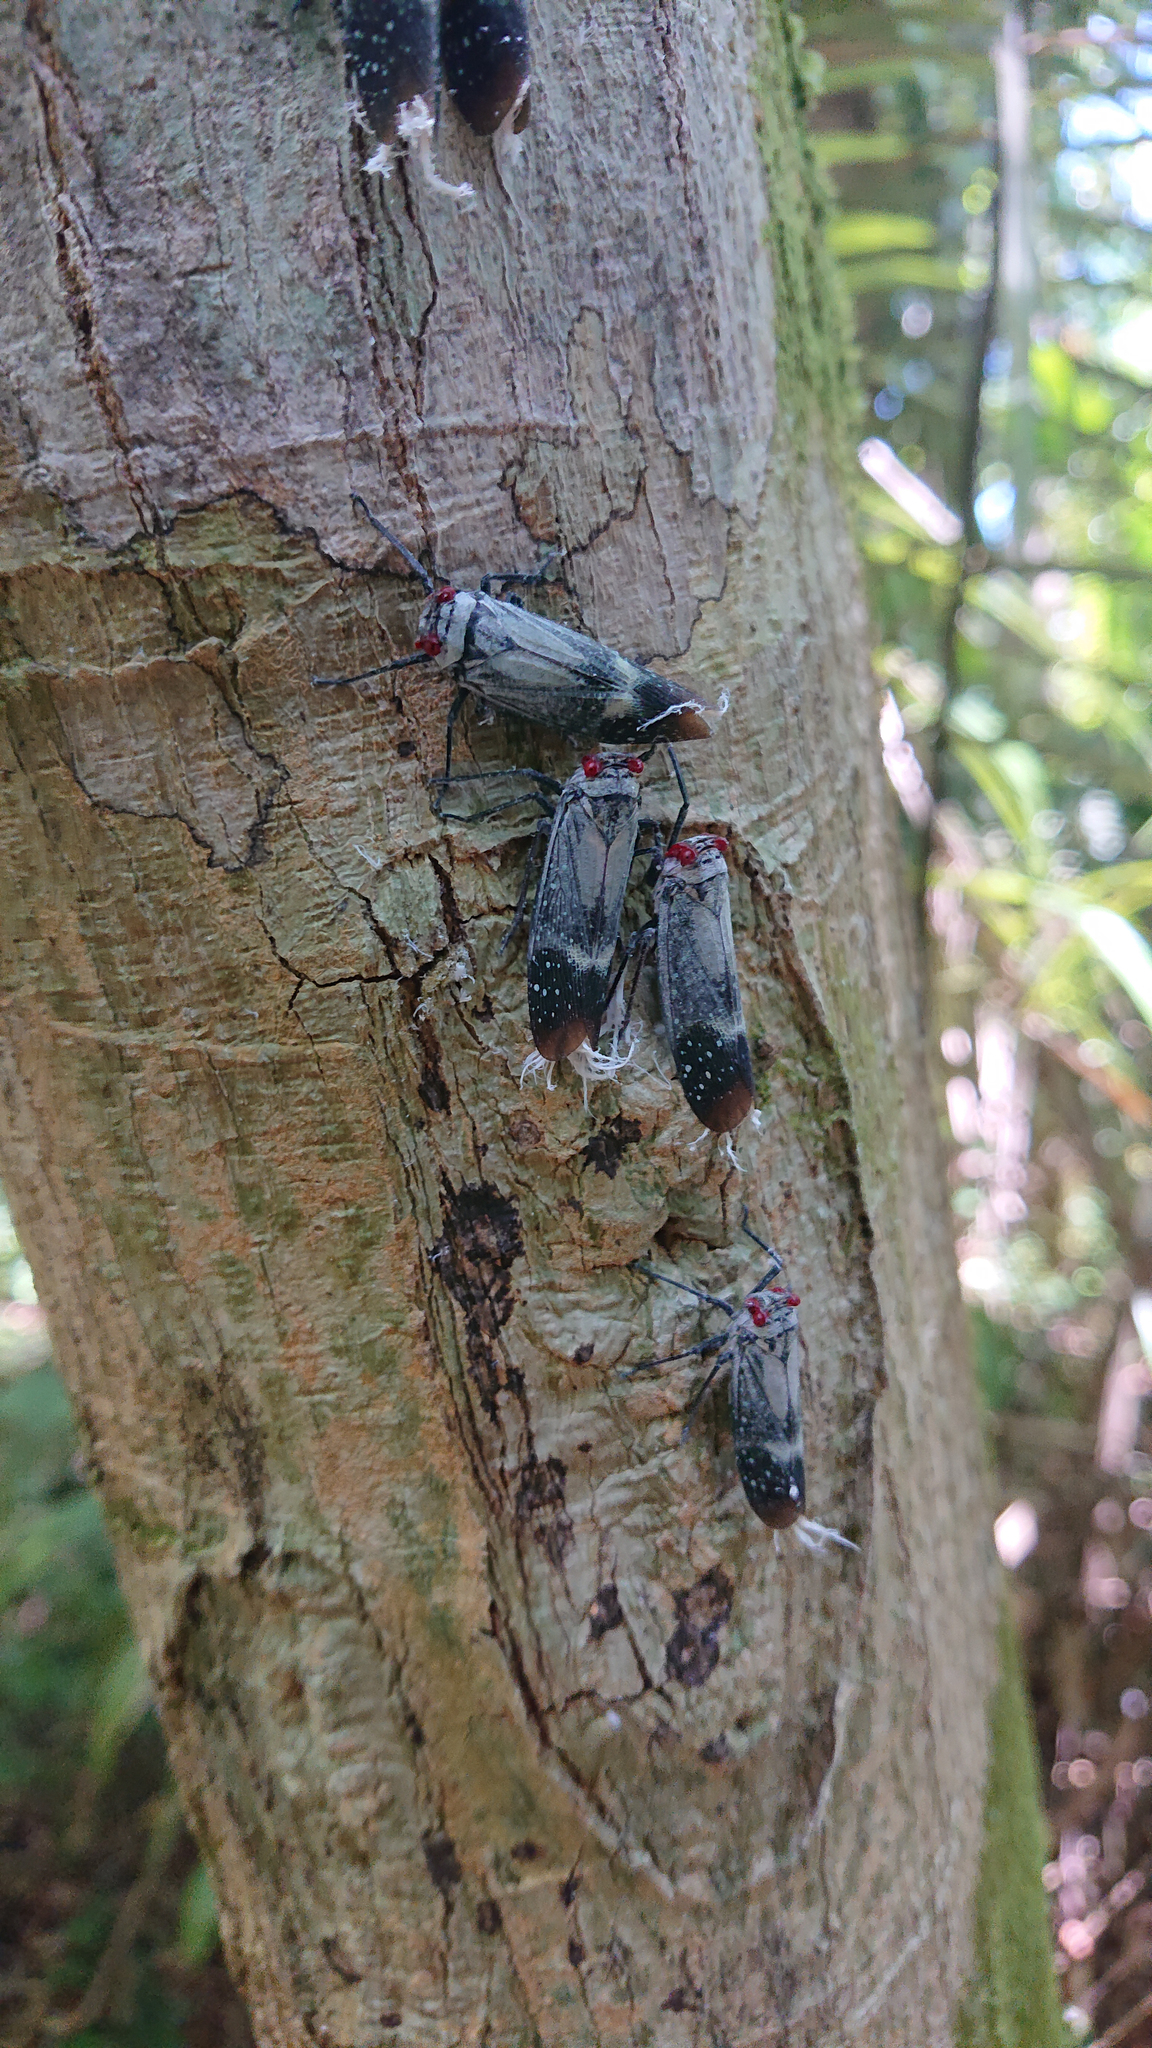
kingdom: Animalia
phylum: Arthropoda
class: Insecta
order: Hemiptera
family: Fulgoridae
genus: Lystra
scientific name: Lystra pulverulenta
